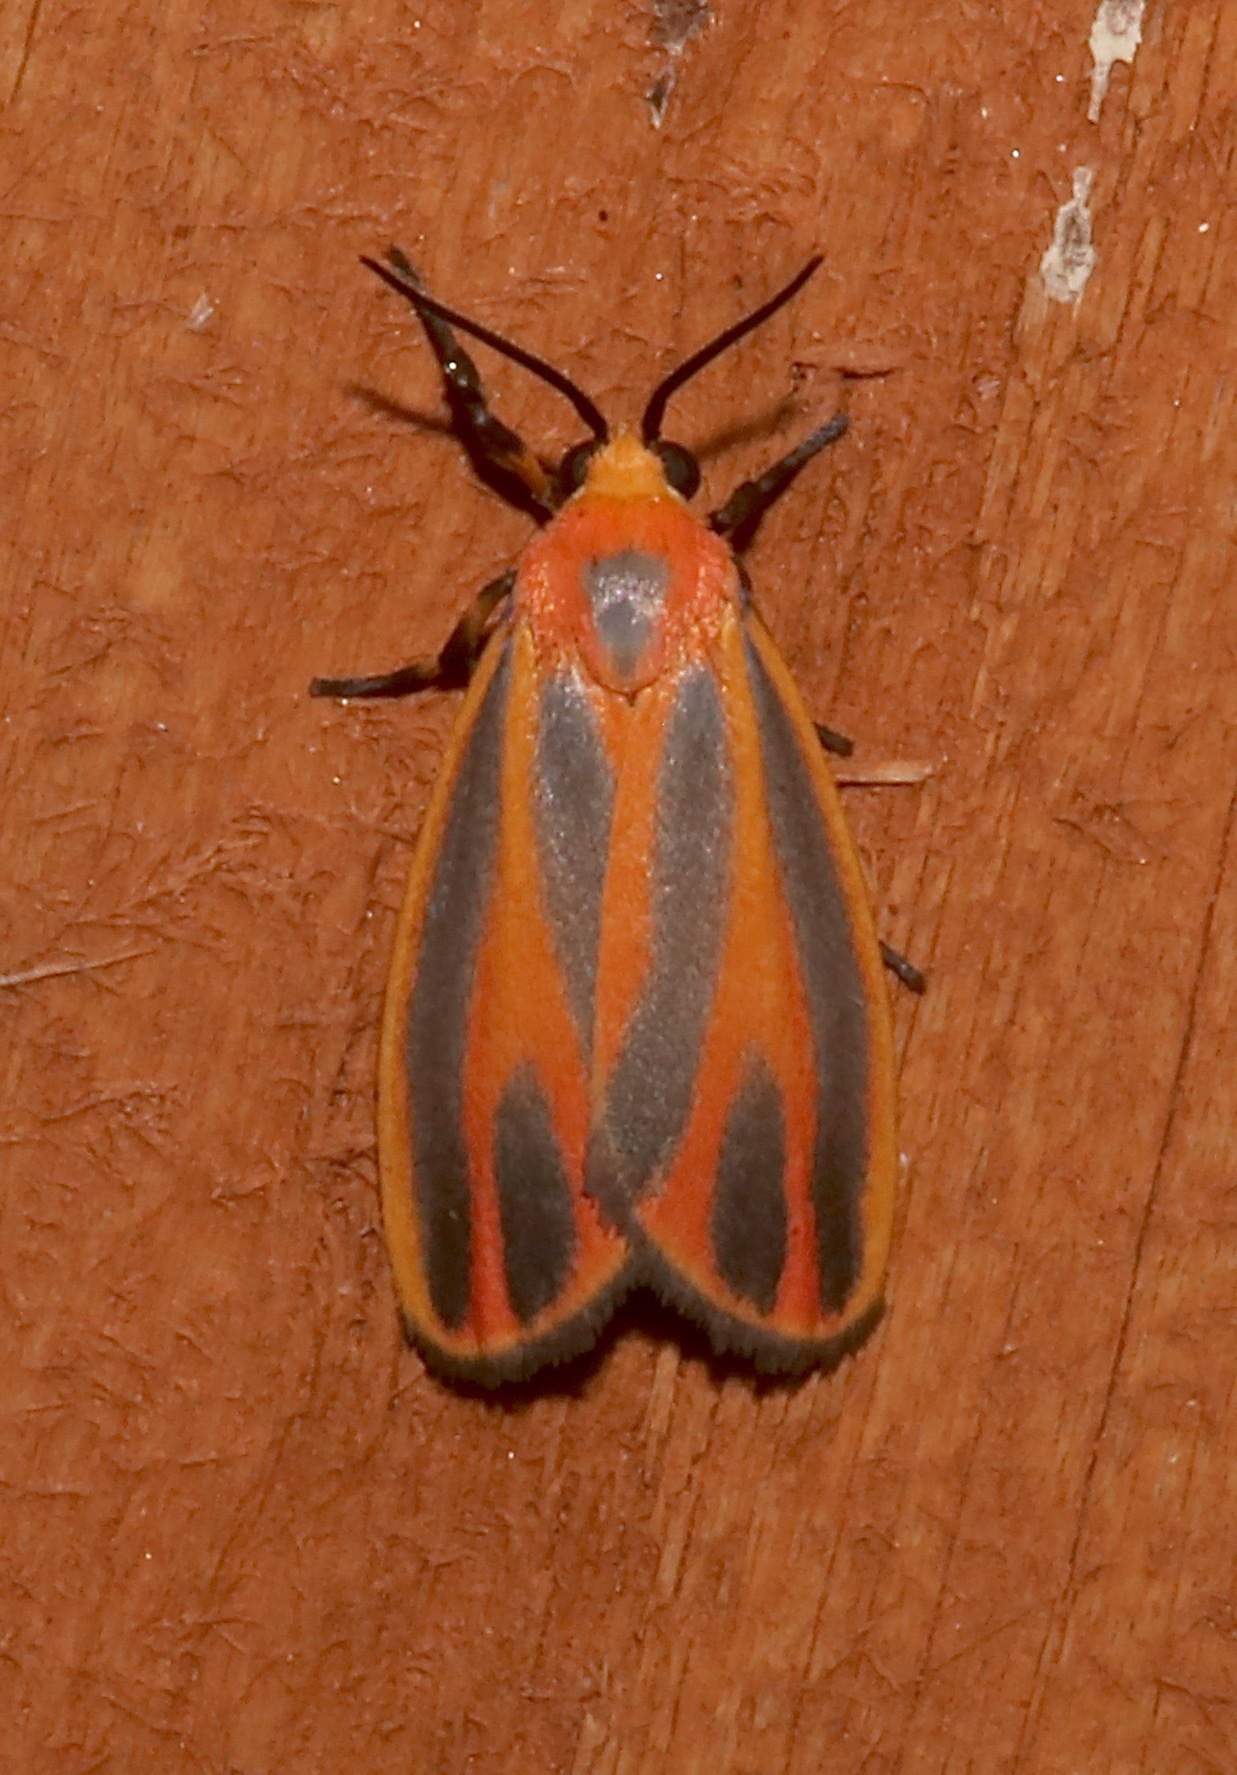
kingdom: Animalia
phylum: Arthropoda
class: Insecta
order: Lepidoptera
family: Erebidae
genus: Hypoprepia
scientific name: Hypoprepia fucosa
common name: Painted lichen moth
